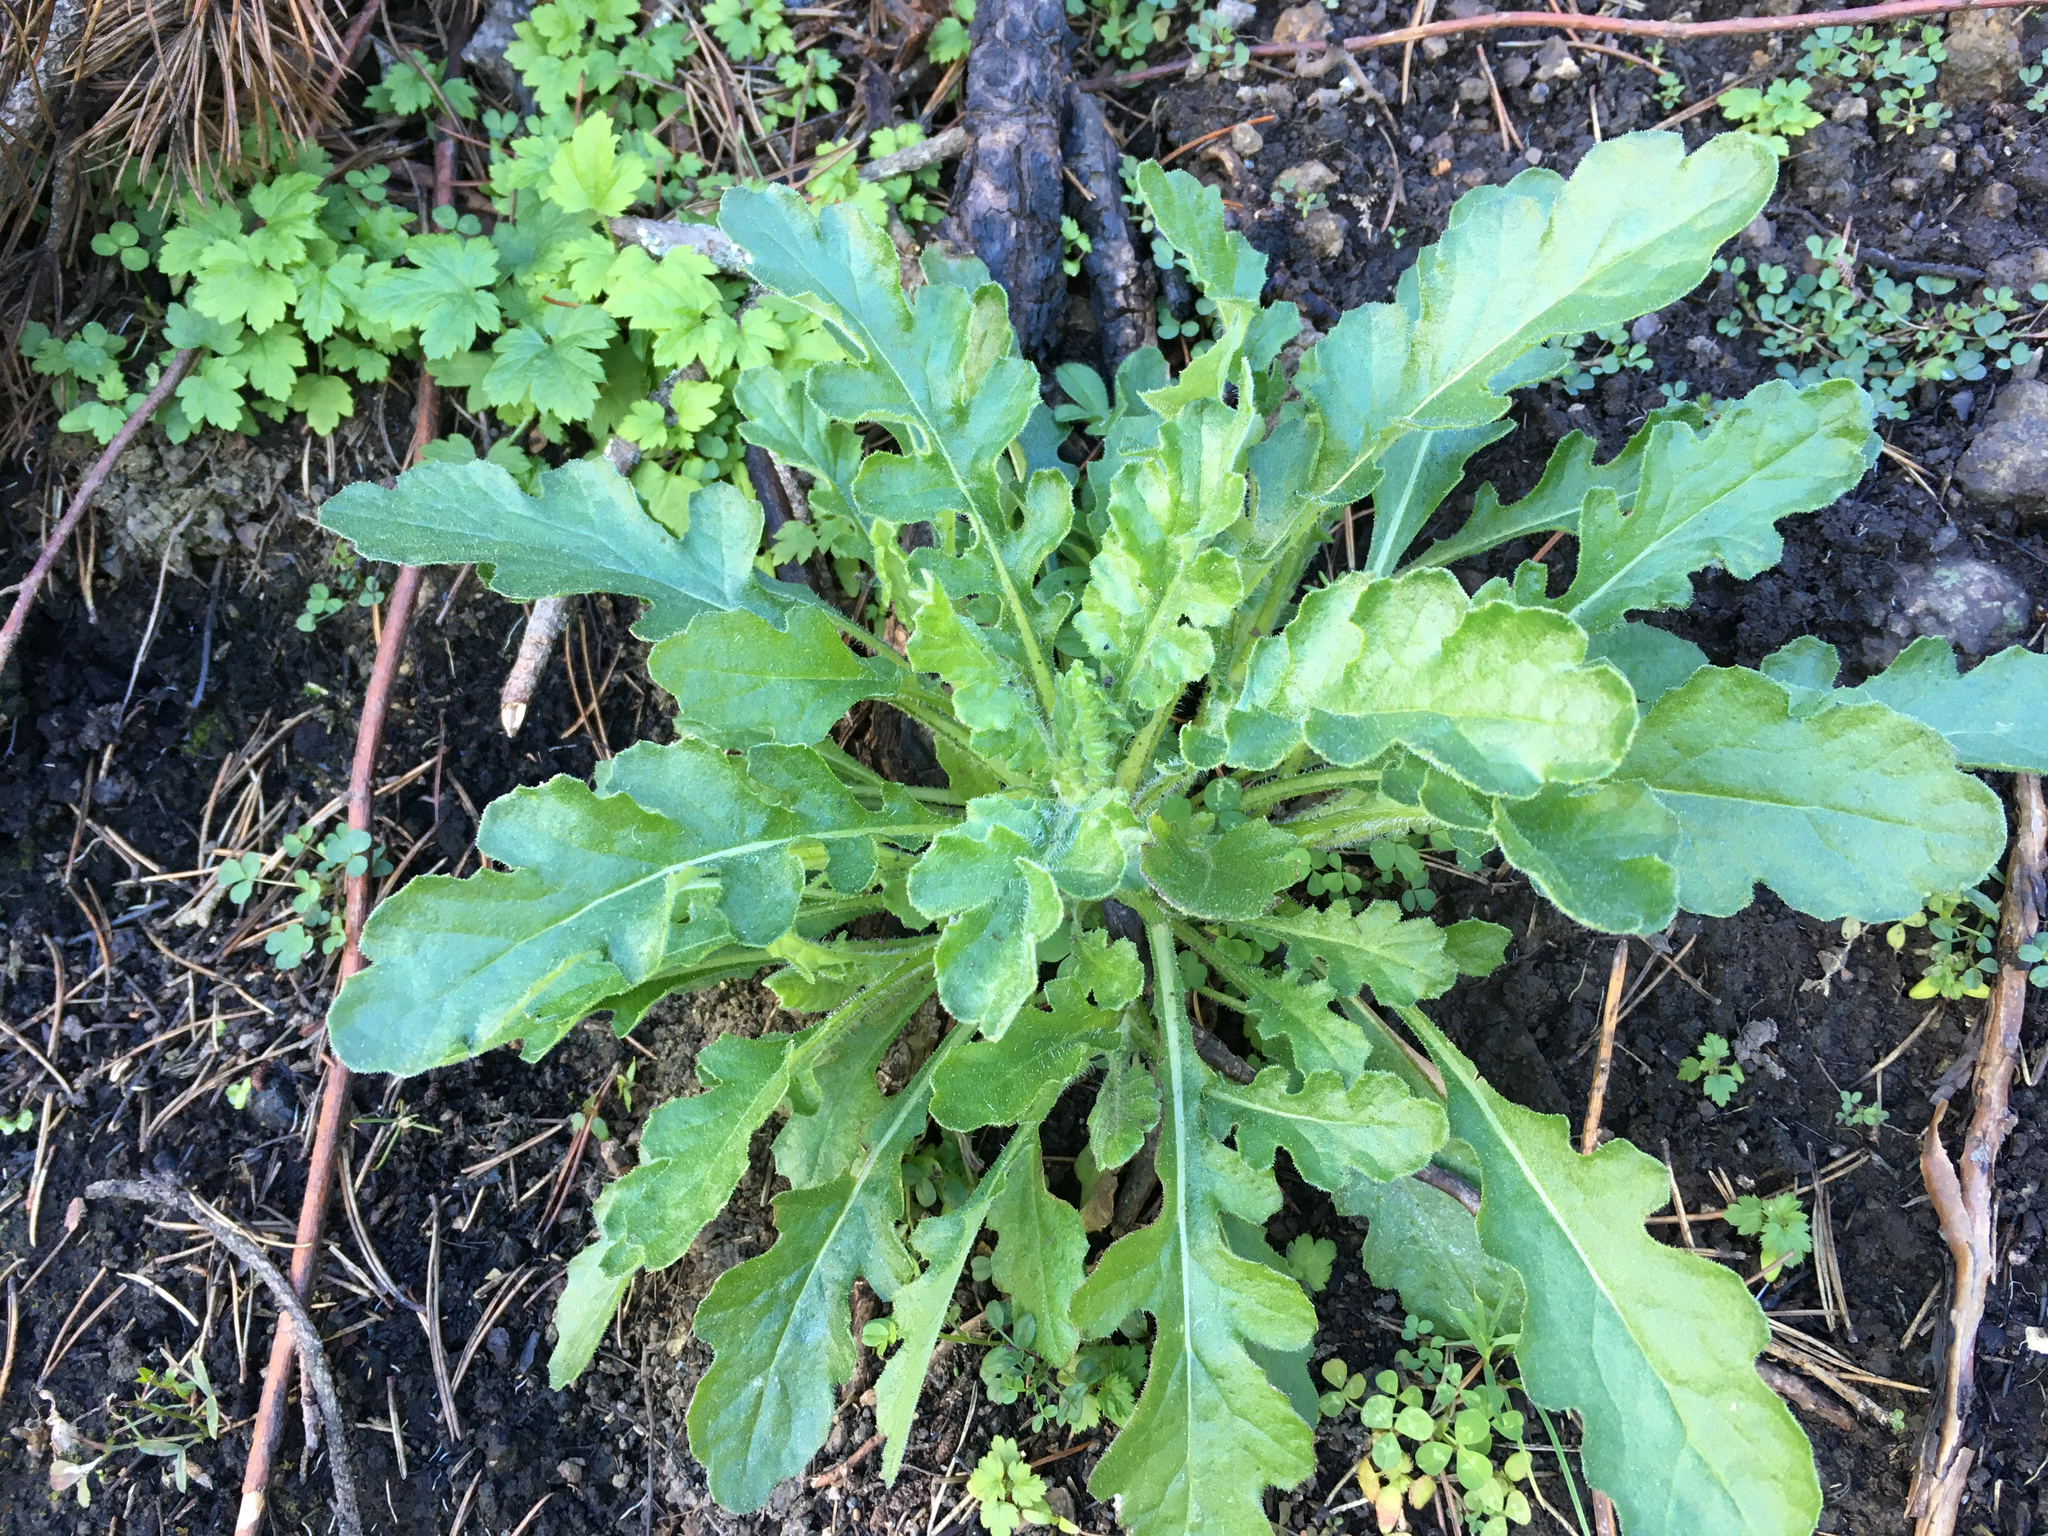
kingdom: Plantae
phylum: Tracheophyta
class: Magnoliopsida
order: Asterales
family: Asteraceae
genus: Senecio
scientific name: Senecio glomeratus
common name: Cutleaf burnweed
